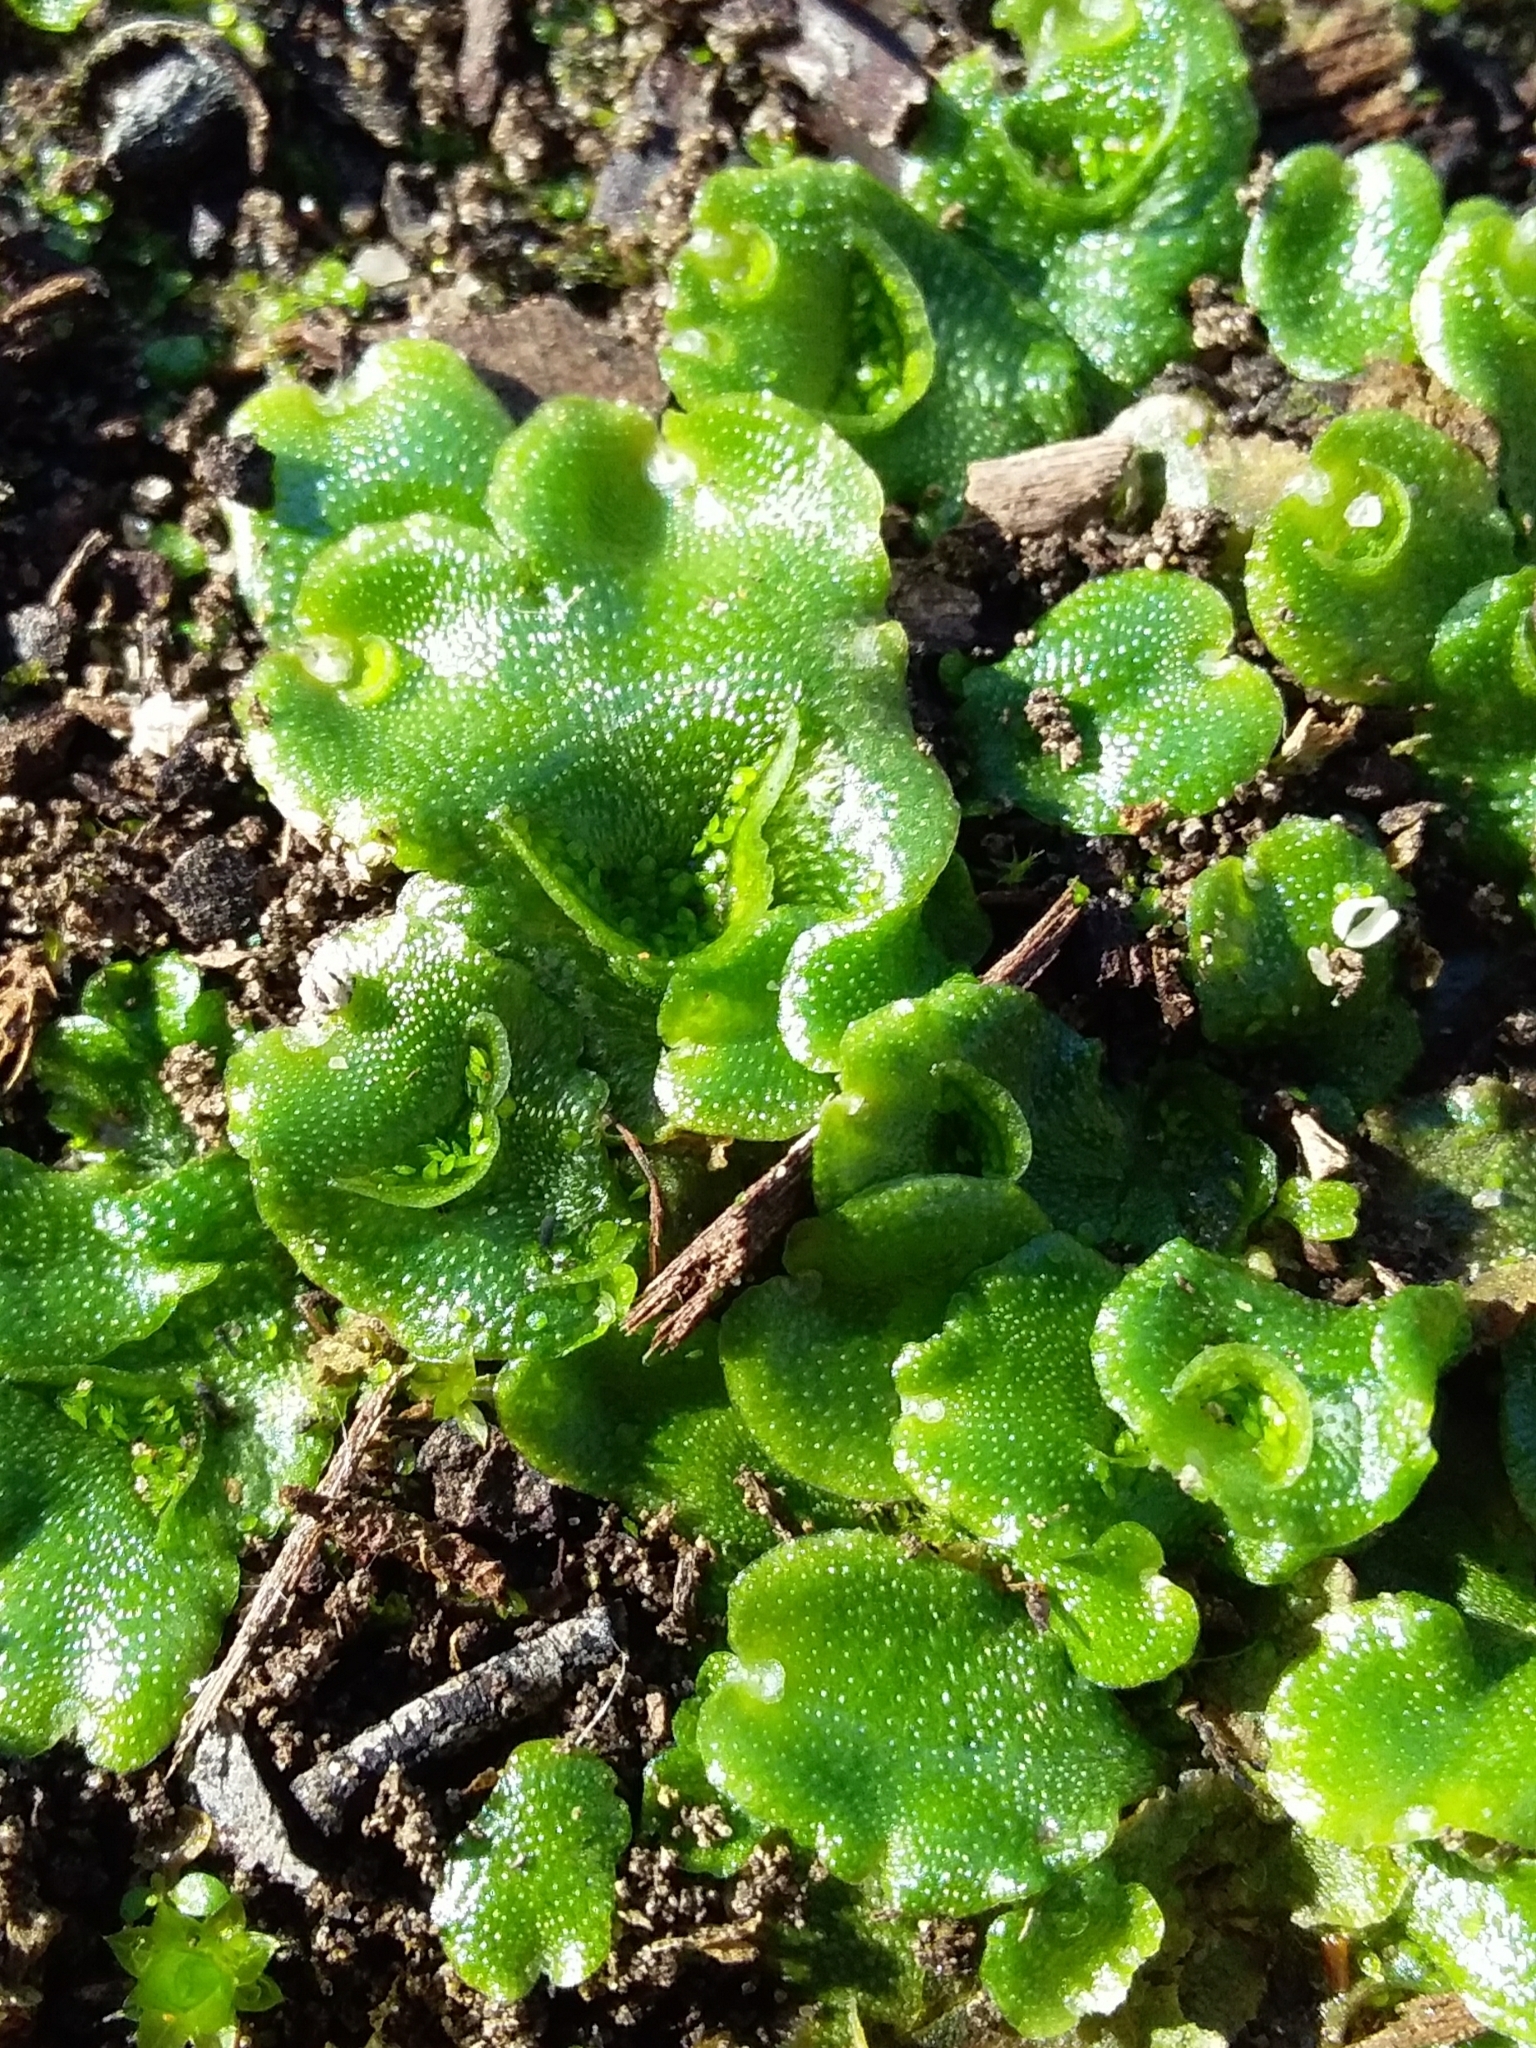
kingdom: Plantae
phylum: Marchantiophyta
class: Marchantiopsida
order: Lunulariales
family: Lunulariaceae
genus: Lunularia
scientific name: Lunularia cruciata
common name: Crescent-cup liverwort
